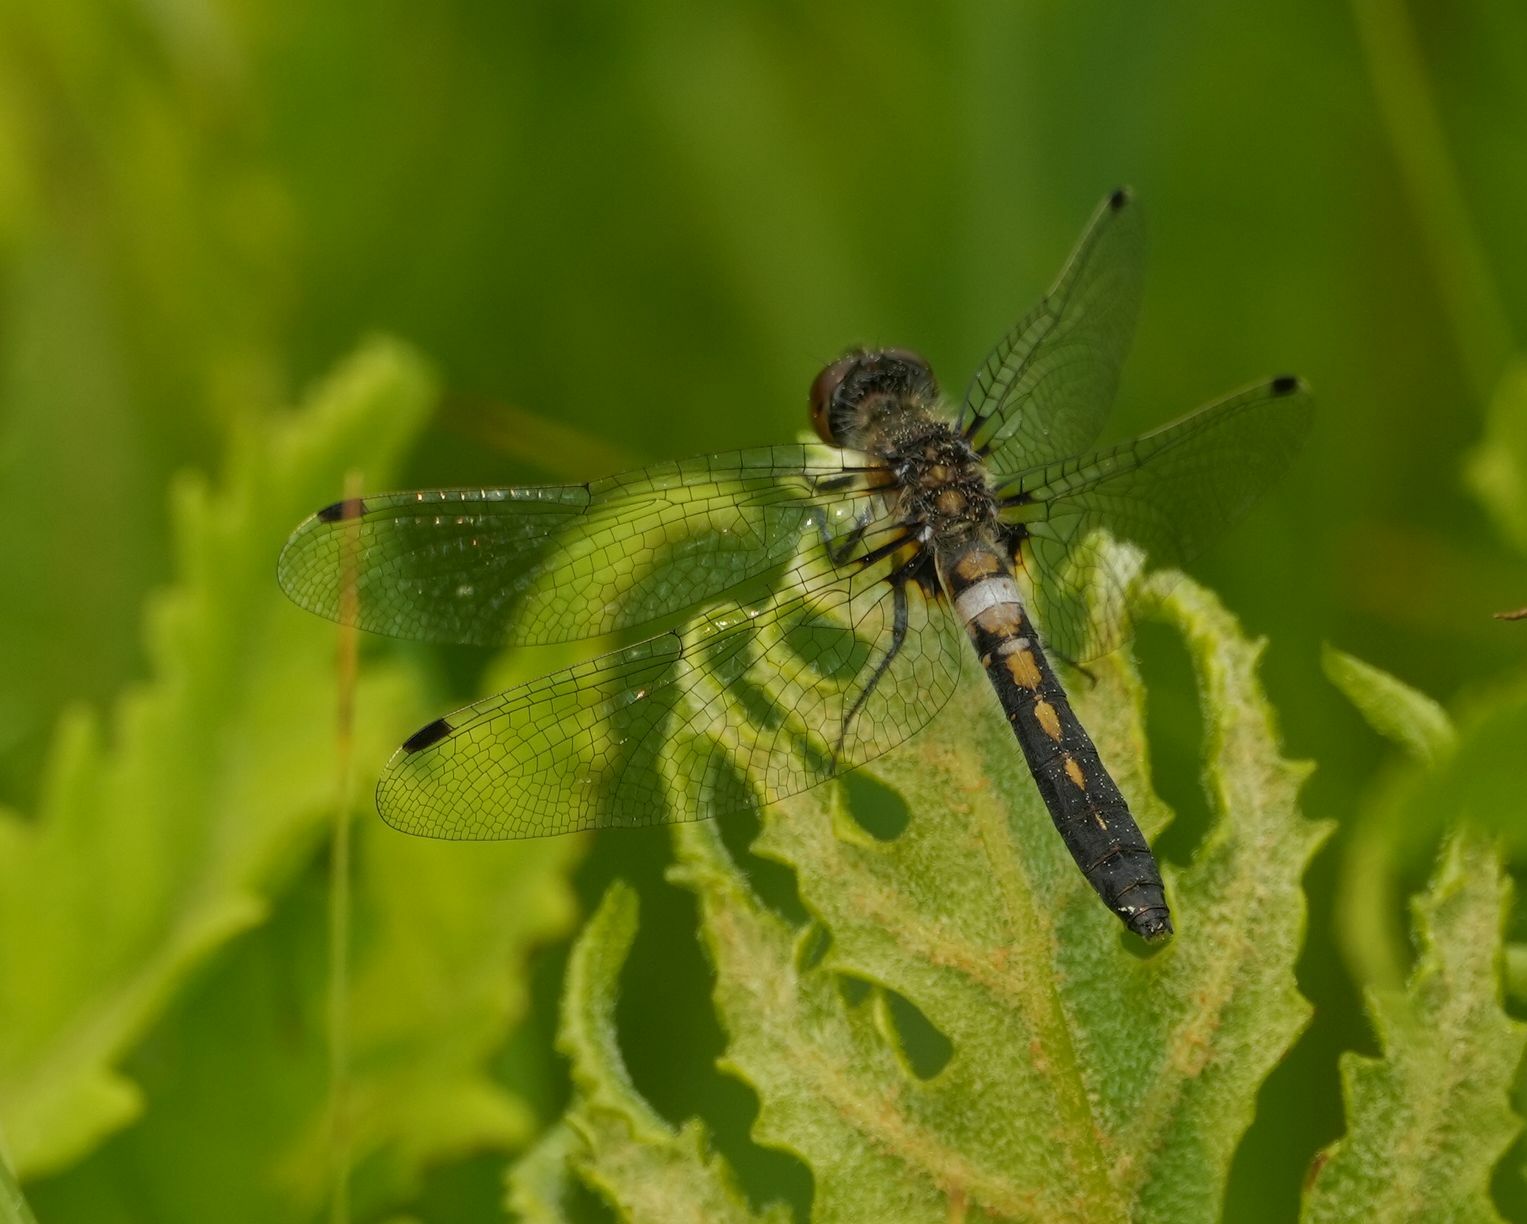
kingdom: Animalia
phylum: Arthropoda
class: Insecta
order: Odonata
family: Libellulidae
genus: Leucorrhinia
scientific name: Leucorrhinia frigida
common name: Frosted whiteface
